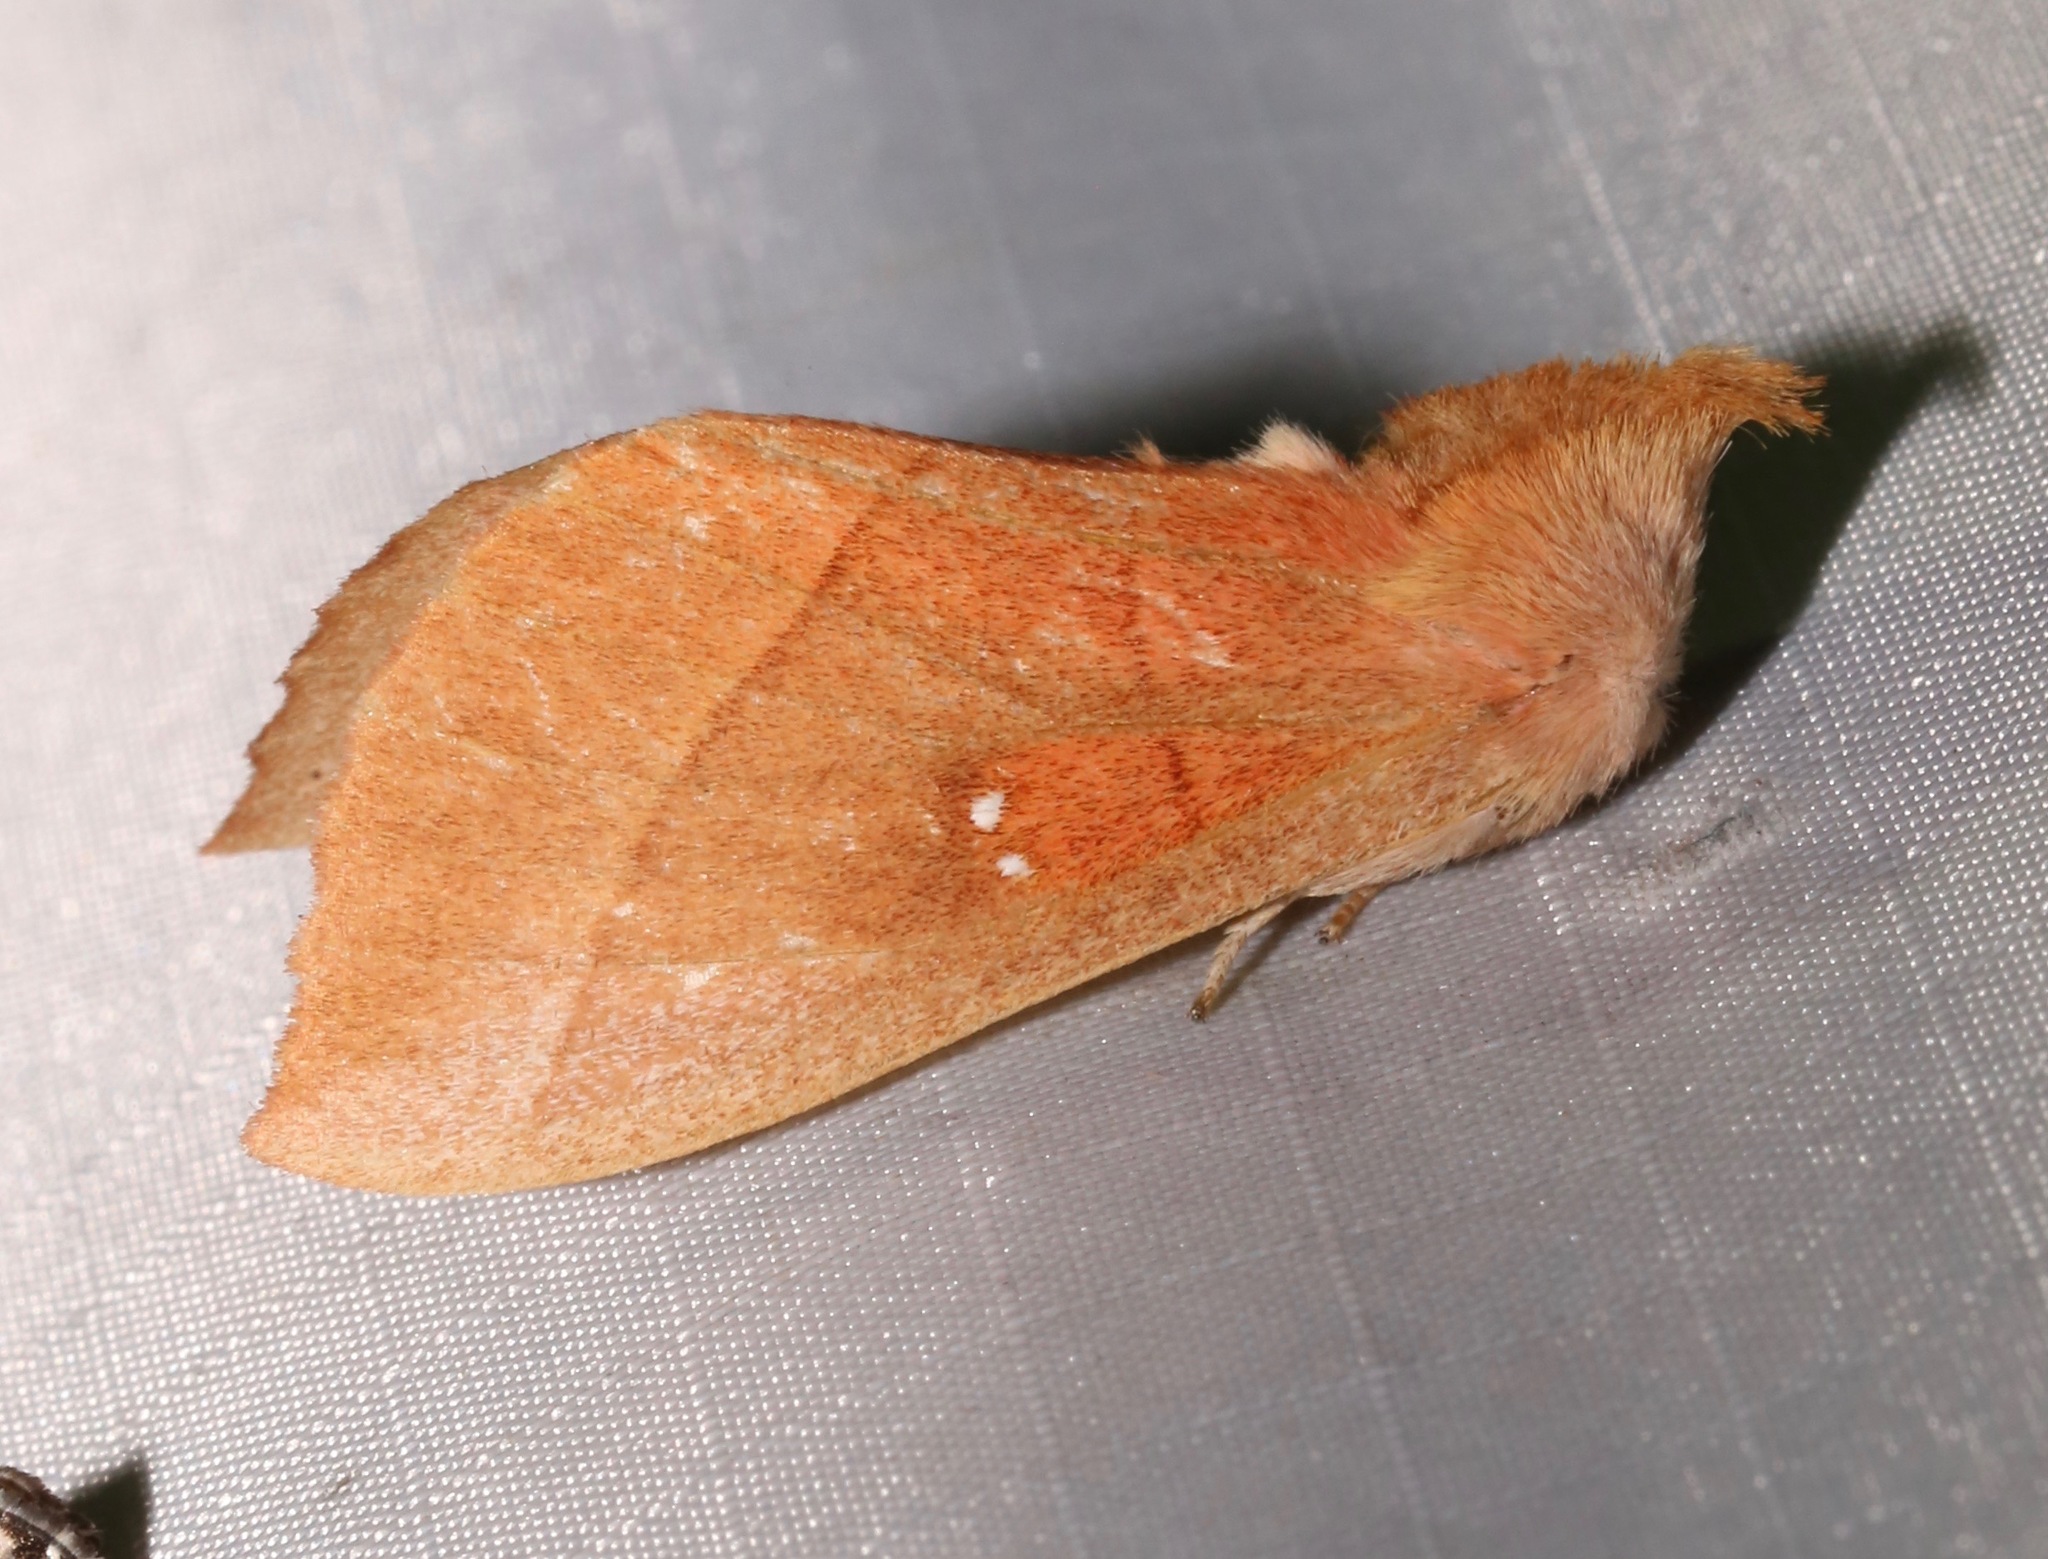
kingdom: Animalia
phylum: Arthropoda
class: Insecta
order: Lepidoptera
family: Notodontidae
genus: Nadata
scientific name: Nadata gibbosa
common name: White-dotted prominent
